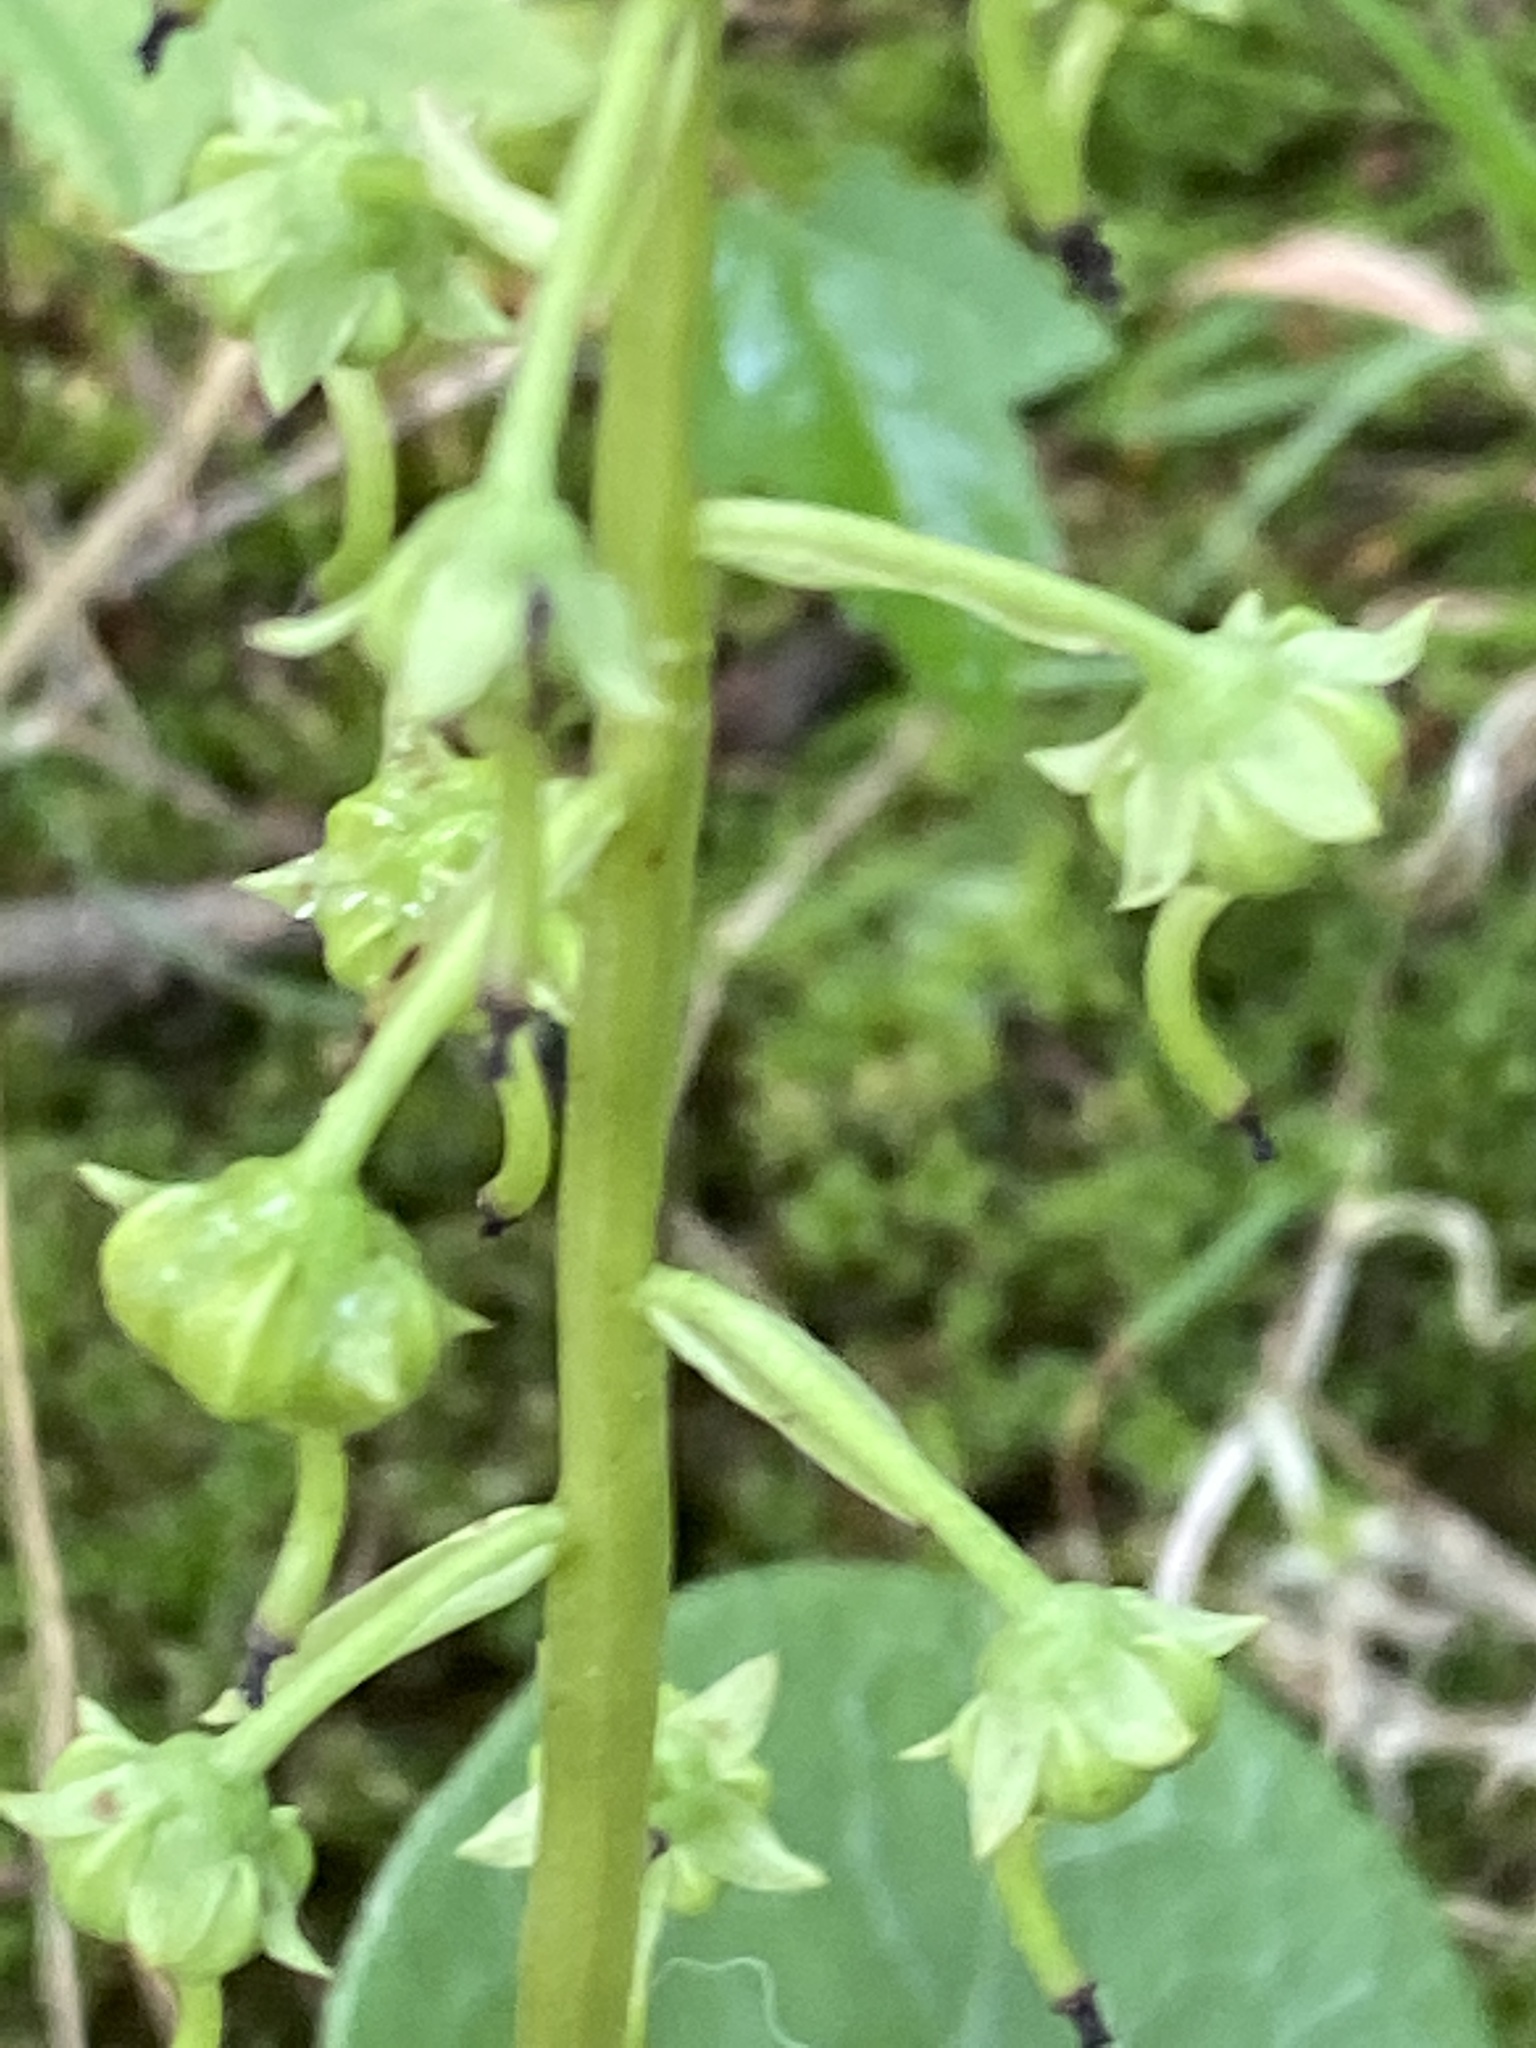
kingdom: Plantae
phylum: Tracheophyta
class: Magnoliopsida
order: Ericales
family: Ericaceae
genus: Pyrola
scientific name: Pyrola americana
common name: American wintergreen
